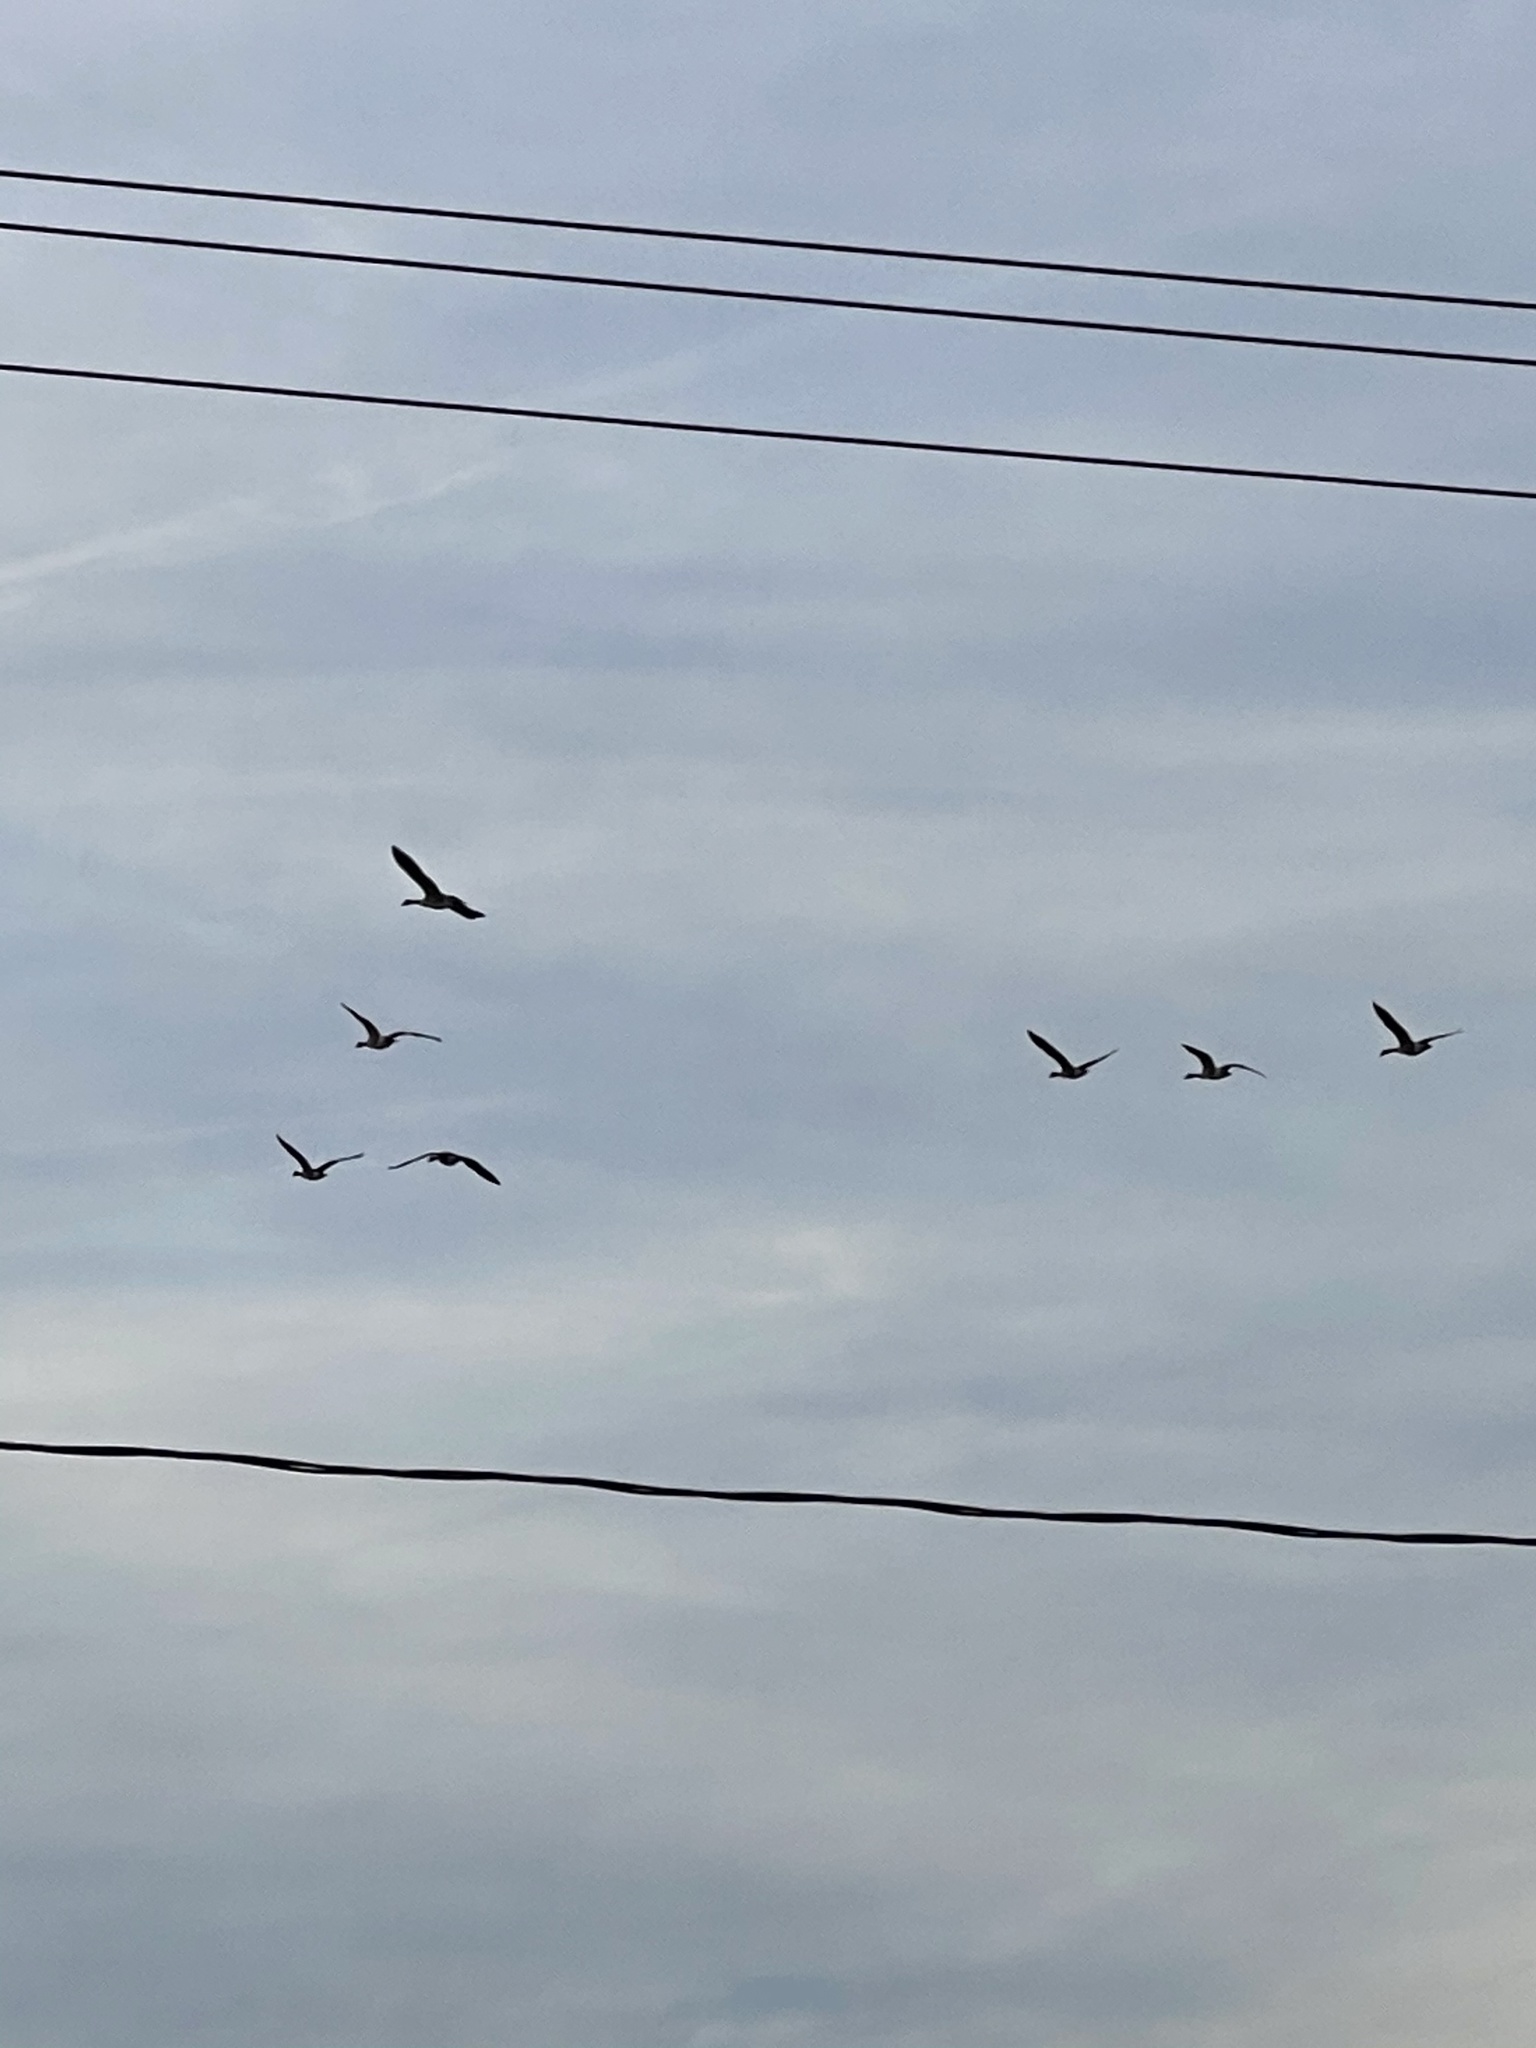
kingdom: Animalia
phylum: Chordata
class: Aves
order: Anseriformes
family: Anatidae
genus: Branta
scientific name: Branta canadensis
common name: Canada goose
